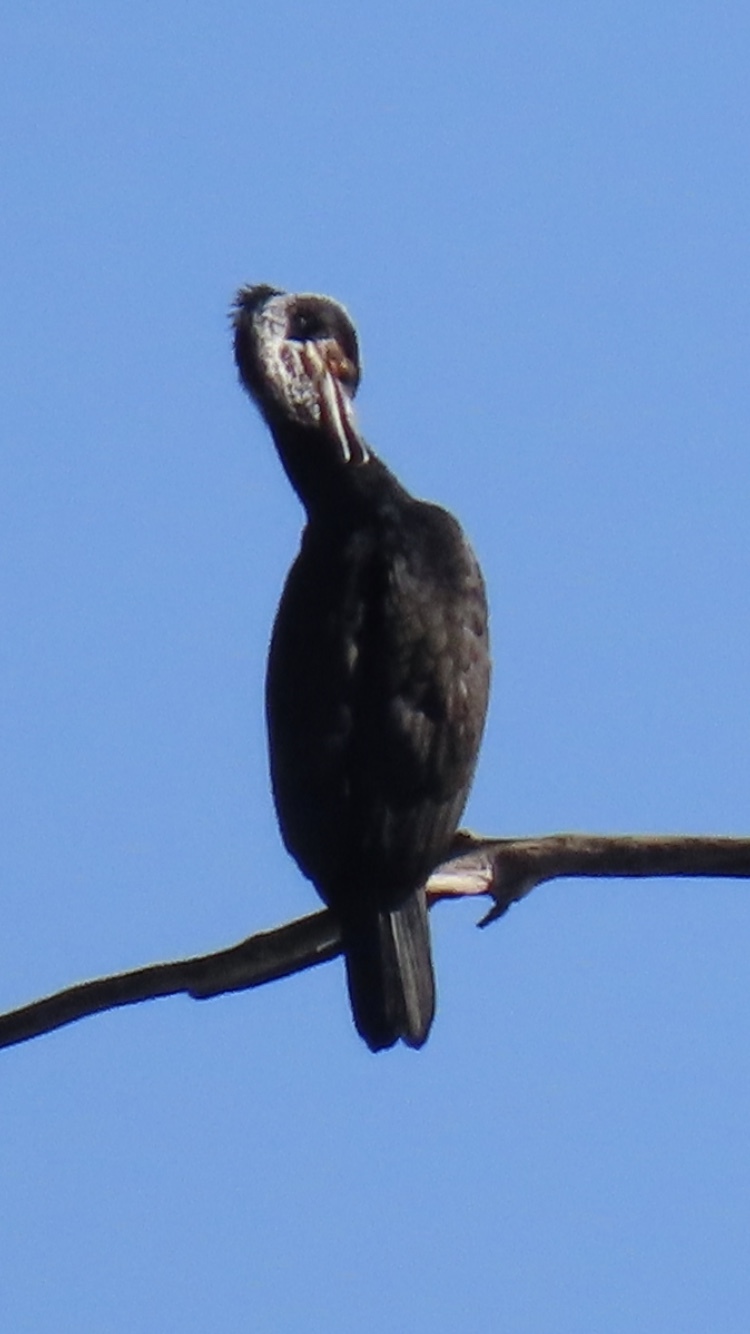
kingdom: Animalia
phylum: Chordata
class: Aves
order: Suliformes
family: Phalacrocoracidae
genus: Phalacrocorax
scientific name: Phalacrocorax carbo
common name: Great cormorant
